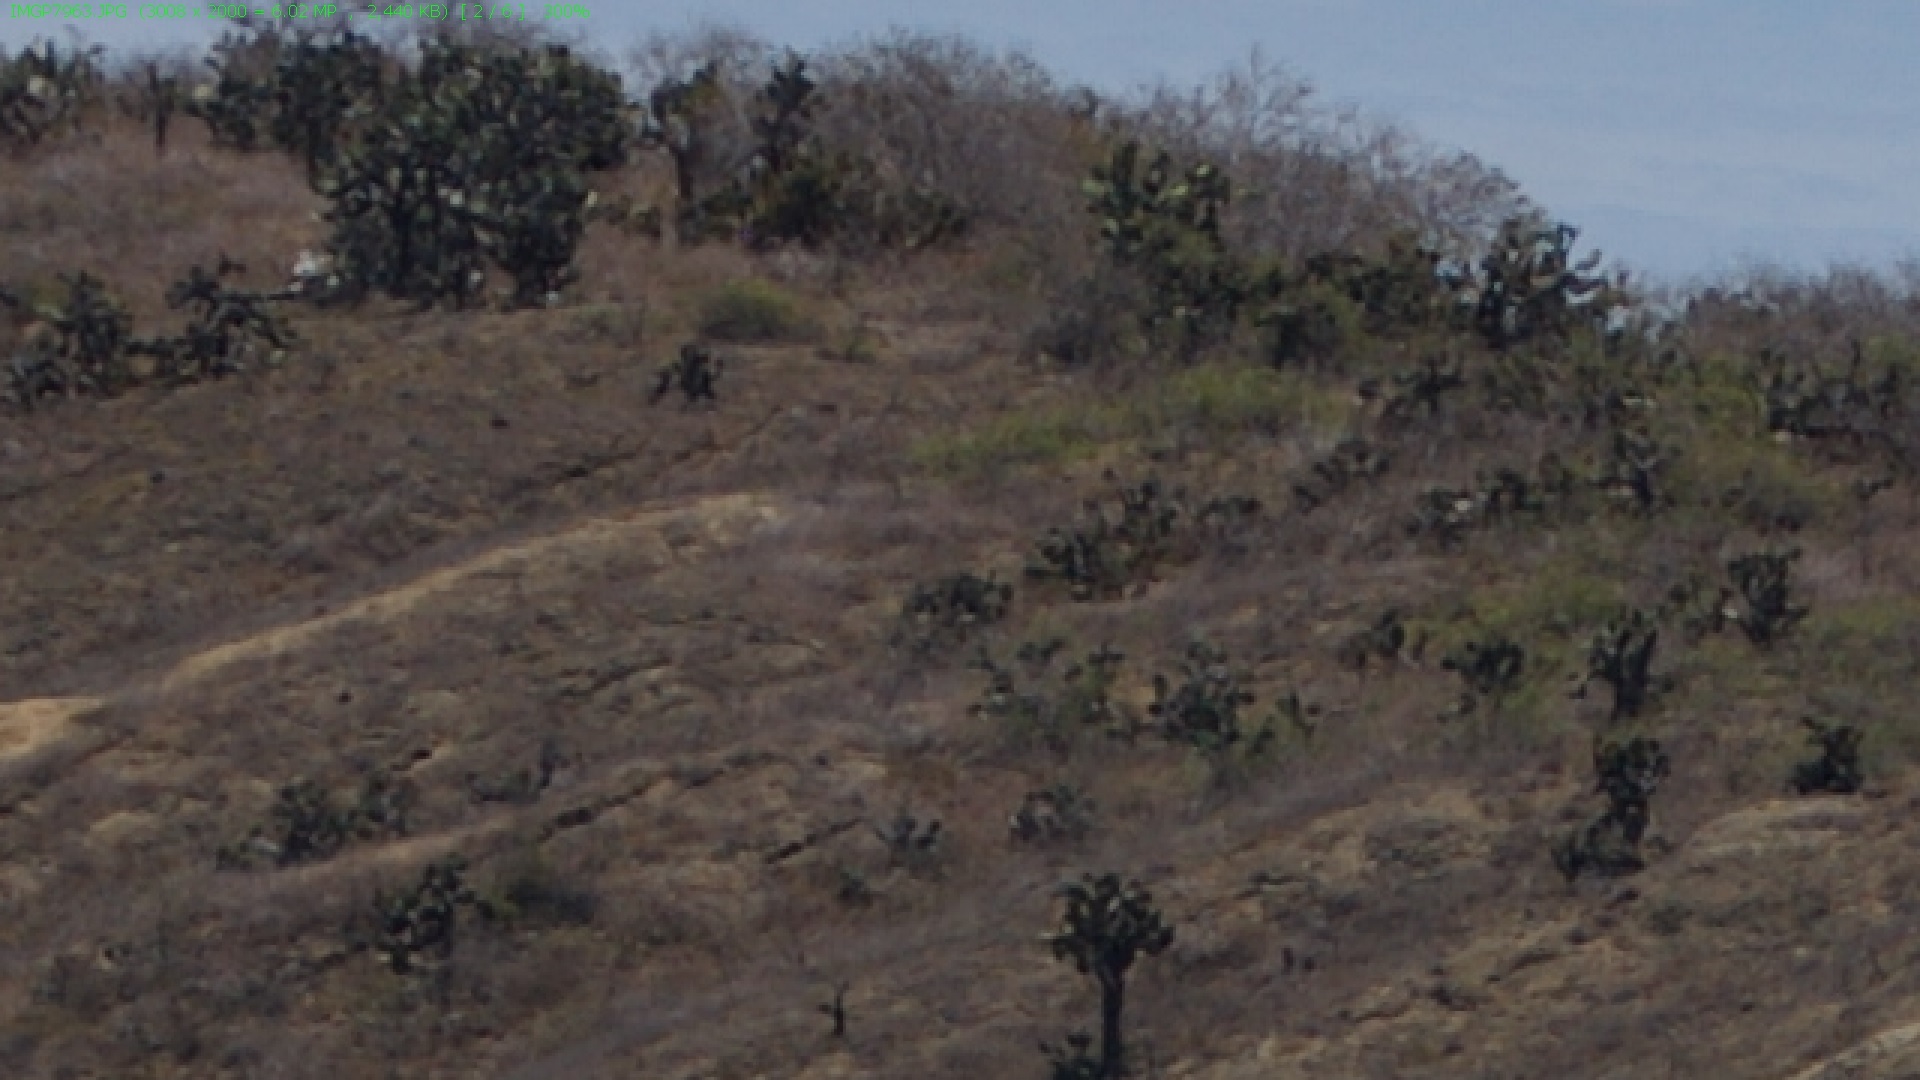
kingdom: Plantae
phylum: Tracheophyta
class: Magnoliopsida
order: Caryophyllales
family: Cactaceae
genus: Opuntia
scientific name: Opuntia galapageia
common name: Galápagos prickly pear
